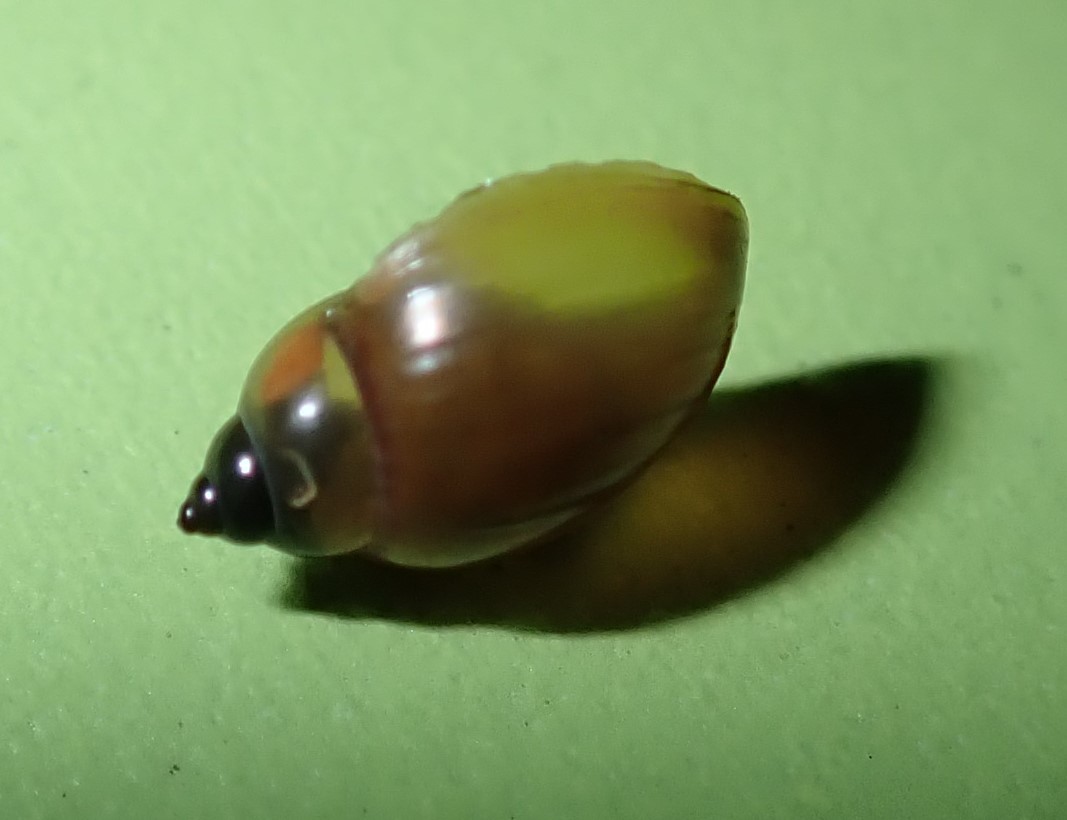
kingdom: Animalia
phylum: Mollusca
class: Gastropoda
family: Physidae
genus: Physella
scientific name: Physella acuta
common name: European physa
